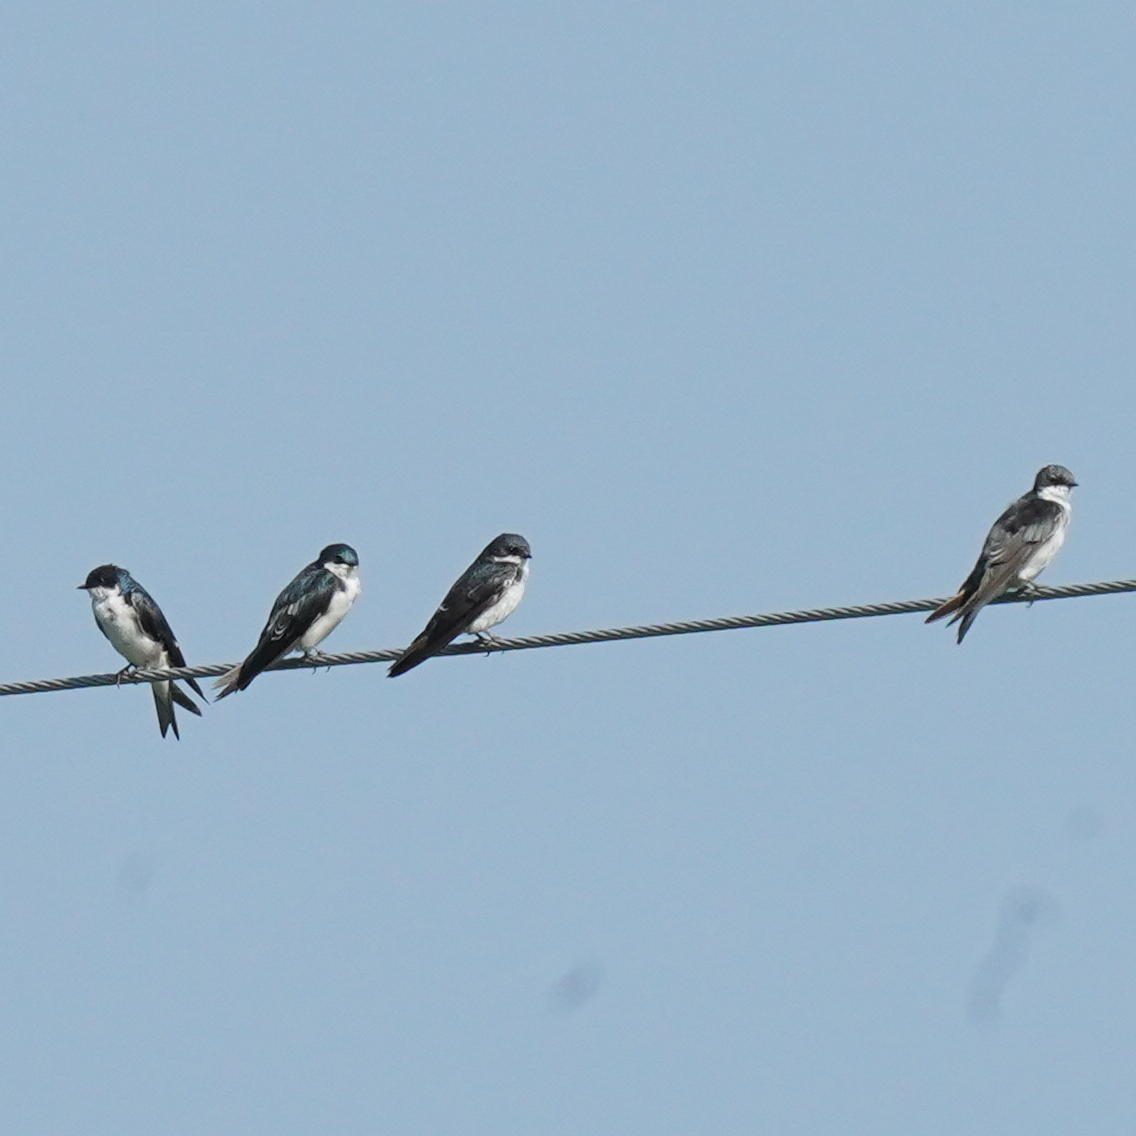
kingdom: Animalia
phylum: Chordata
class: Aves
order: Passeriformes
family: Hirundinidae
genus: Tachycineta
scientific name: Tachycineta bicolor
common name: Tree swallow
